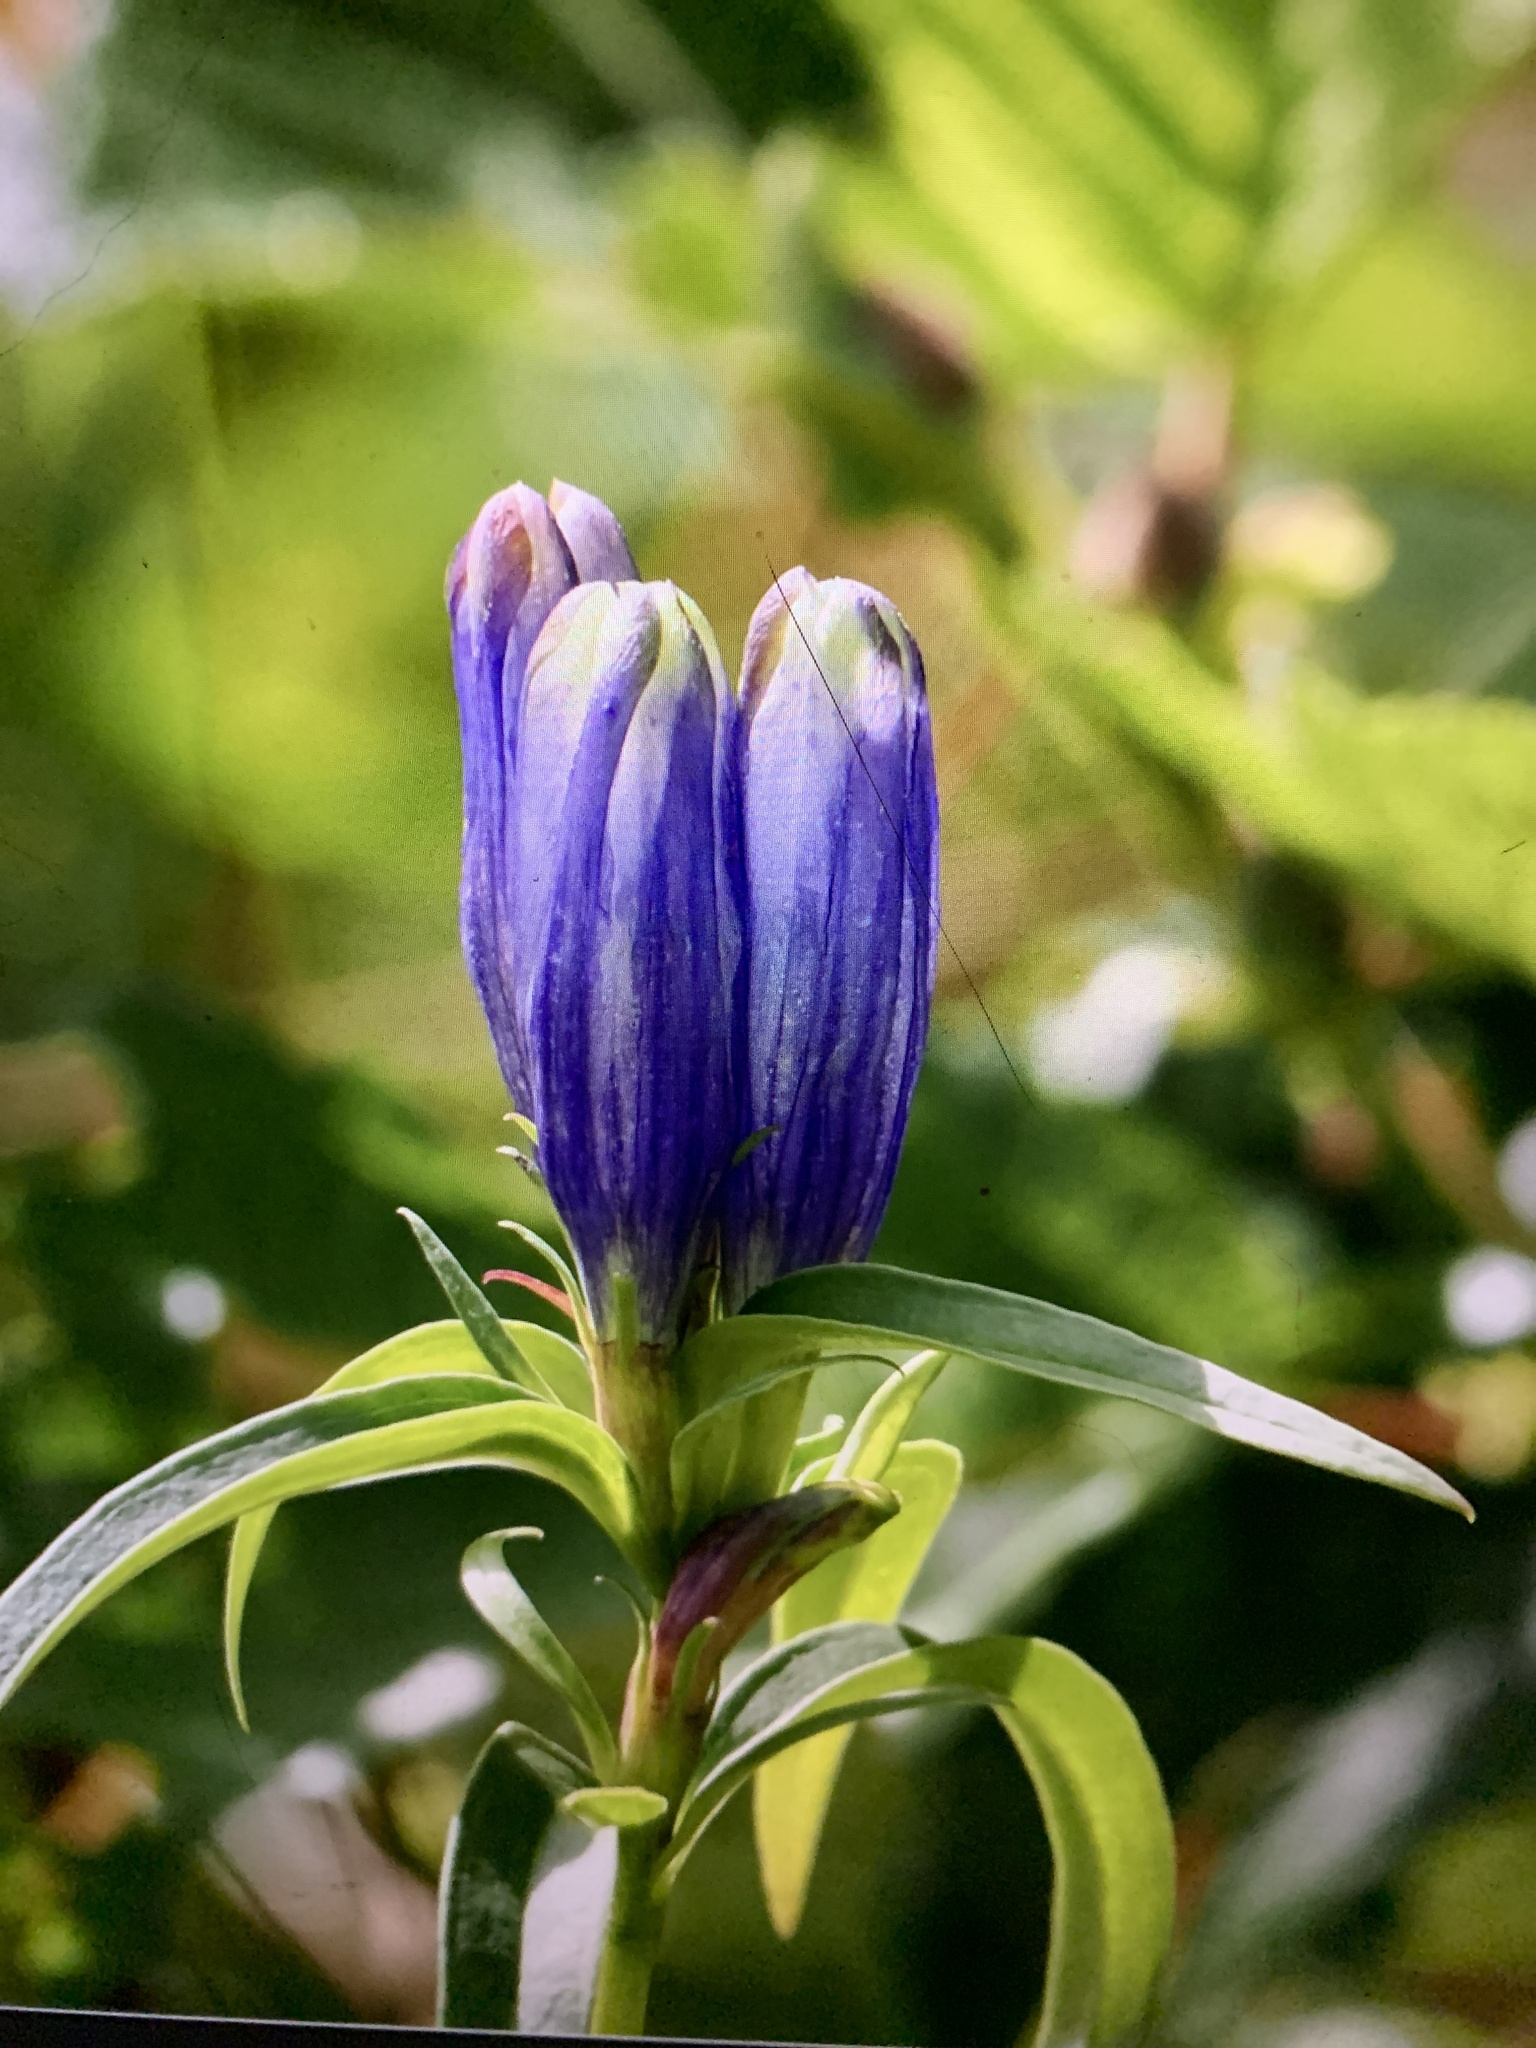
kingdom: Plantae
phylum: Tracheophyta
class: Magnoliopsida
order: Gentianales
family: Gentianaceae
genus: Gentiana
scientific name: Gentiana linearis
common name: Bastard gentian
